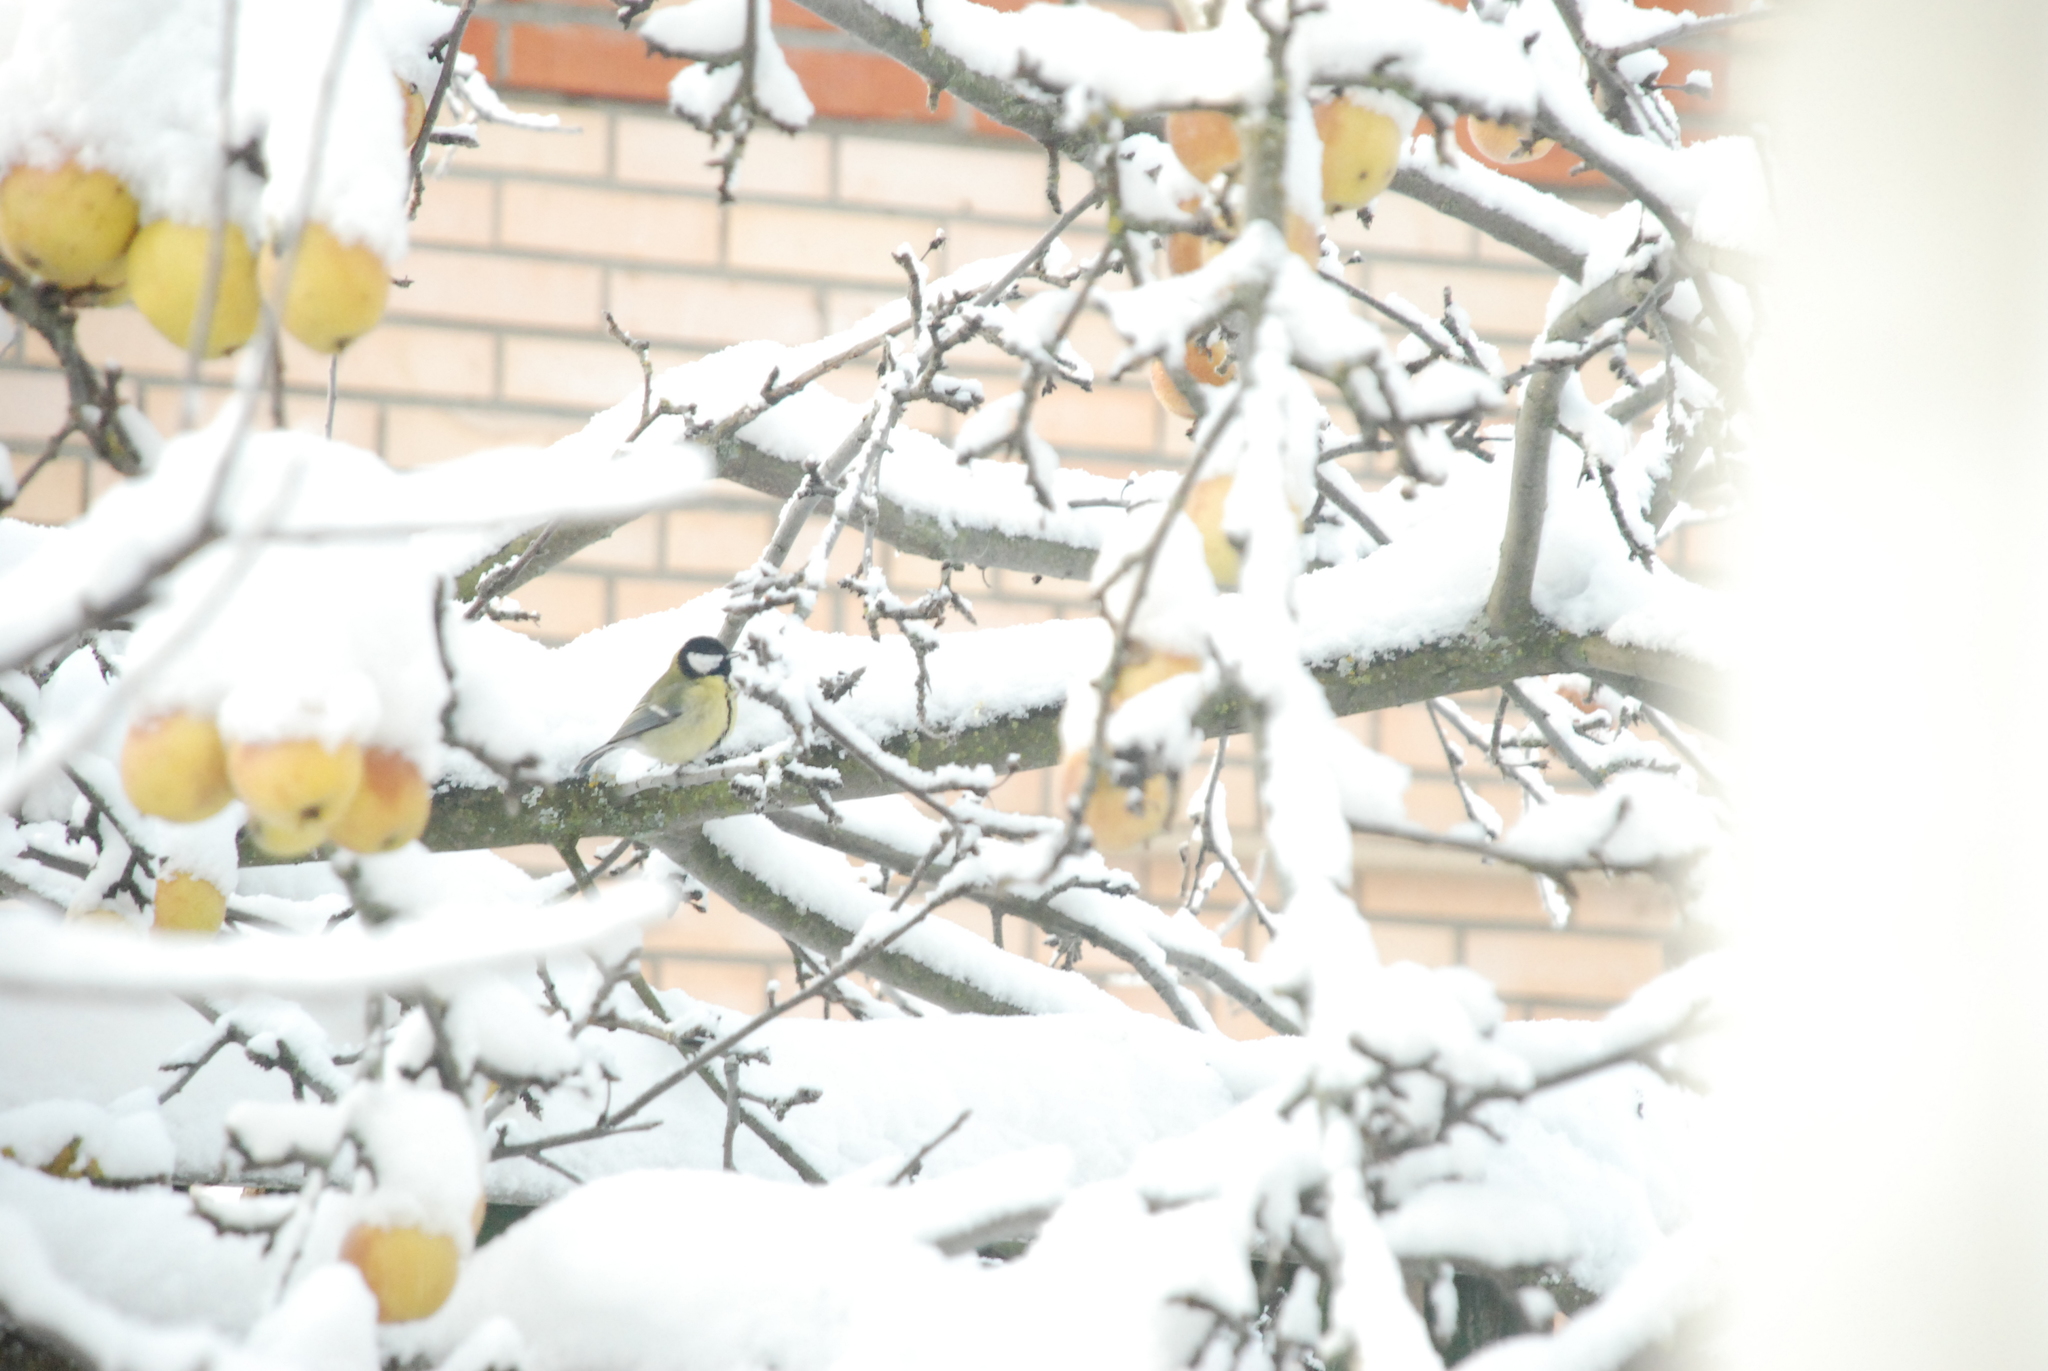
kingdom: Animalia
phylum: Chordata
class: Aves
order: Passeriformes
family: Paridae
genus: Parus
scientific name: Parus major
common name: Great tit
